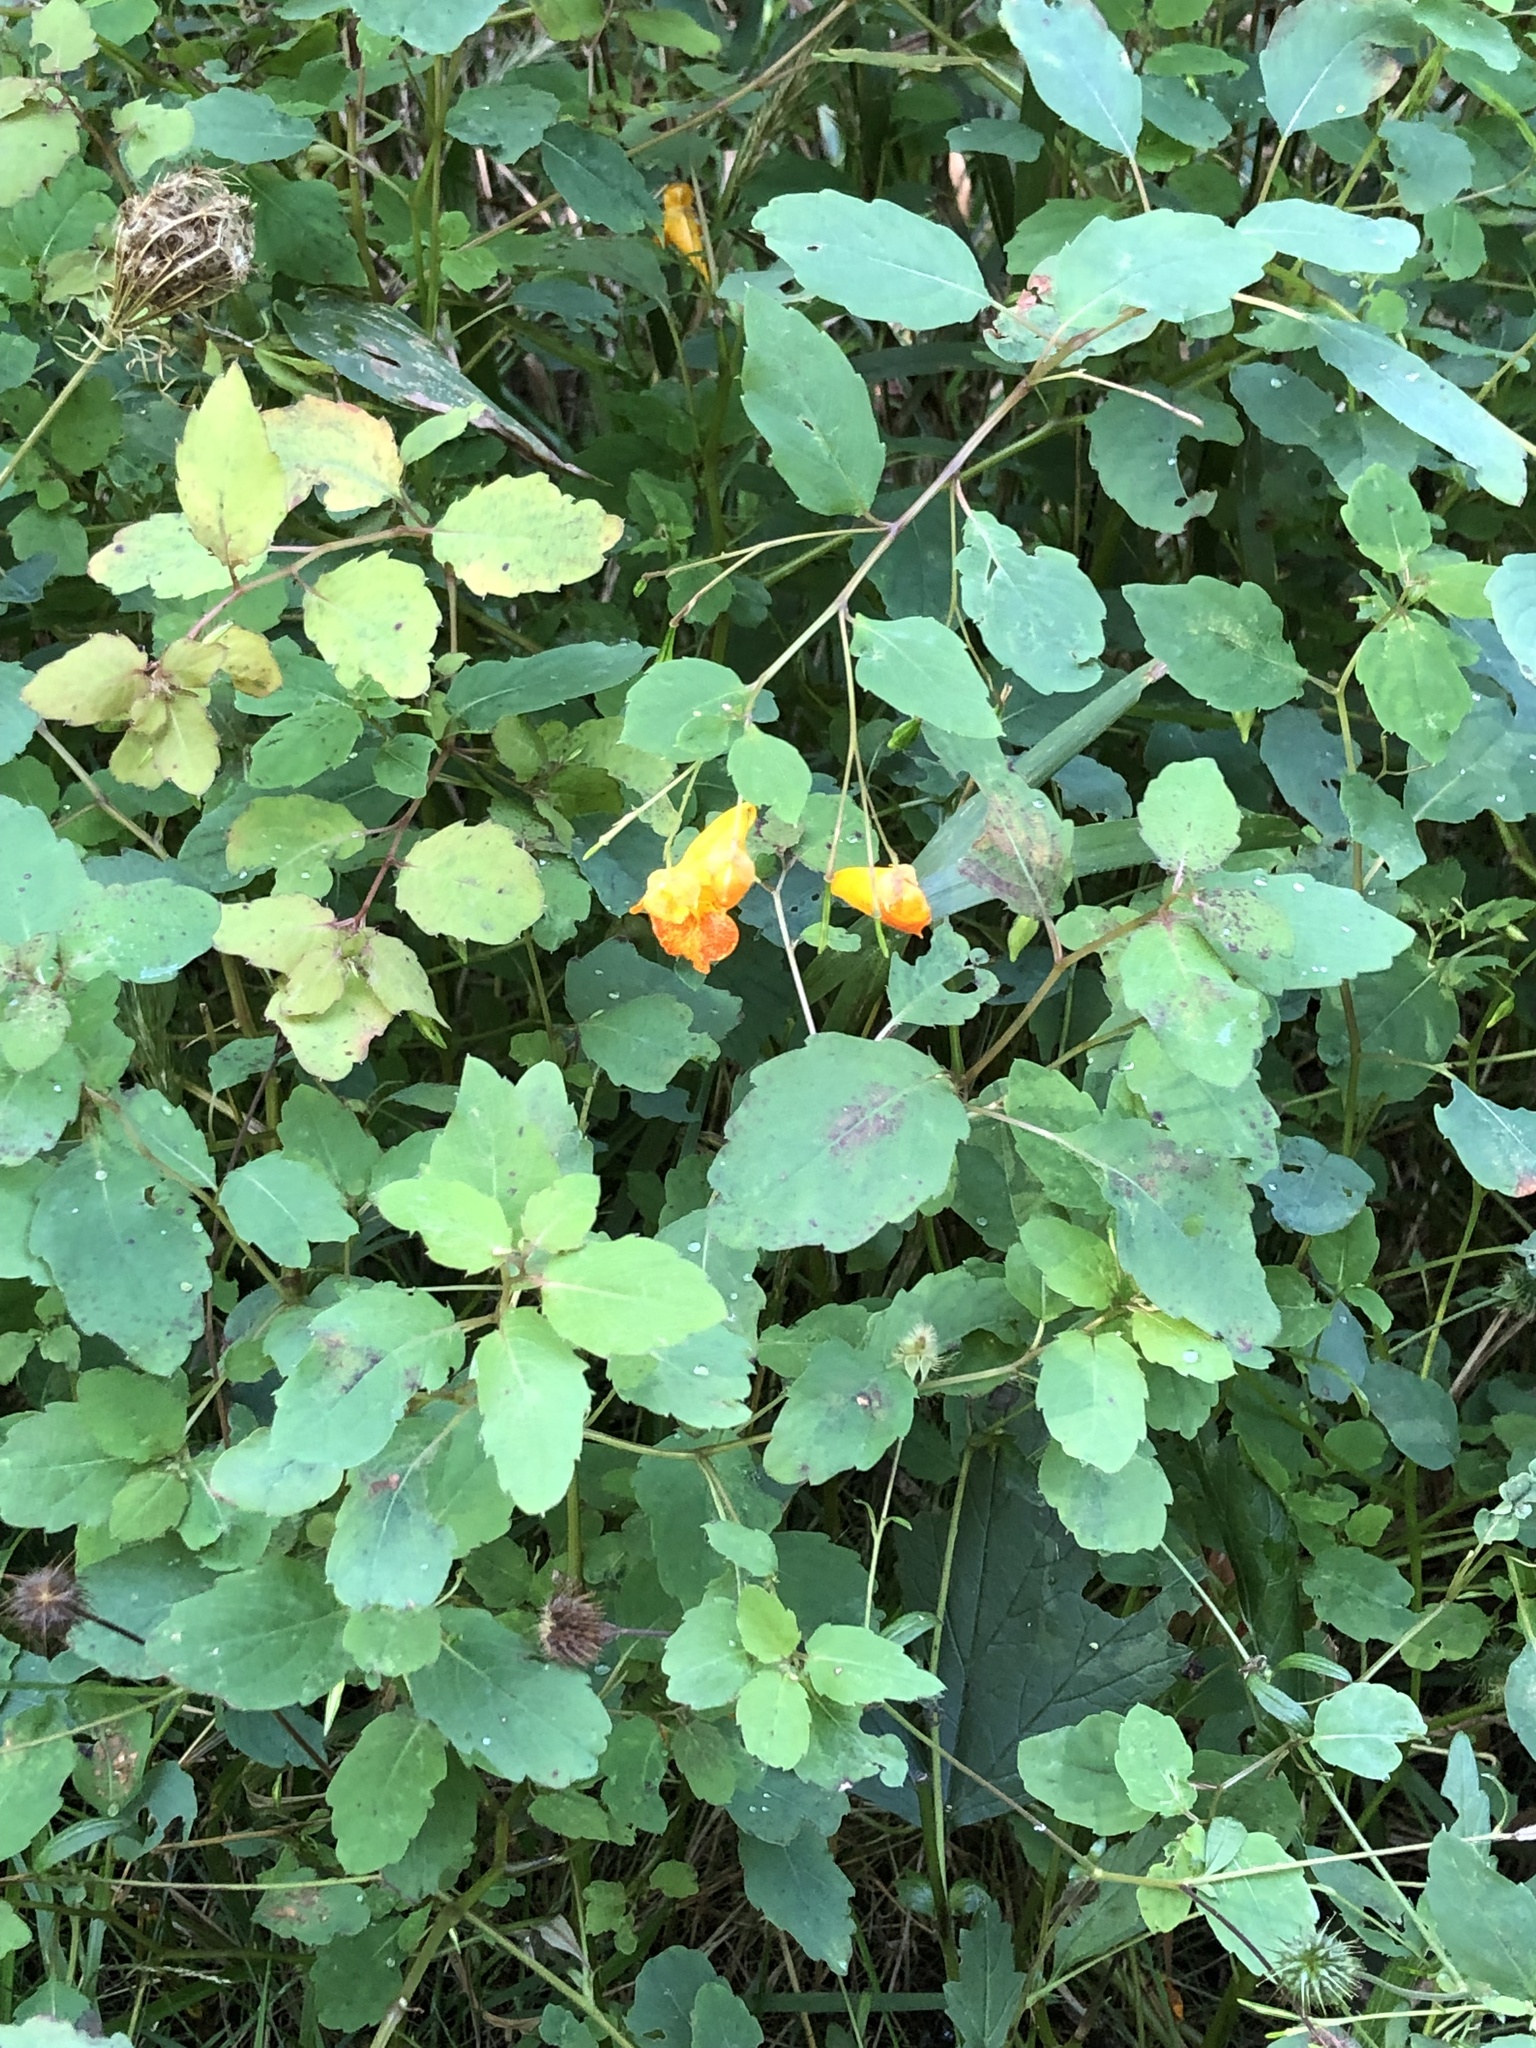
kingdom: Plantae
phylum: Tracheophyta
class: Magnoliopsida
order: Ericales
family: Balsaminaceae
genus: Impatiens
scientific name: Impatiens capensis
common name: Orange balsam
